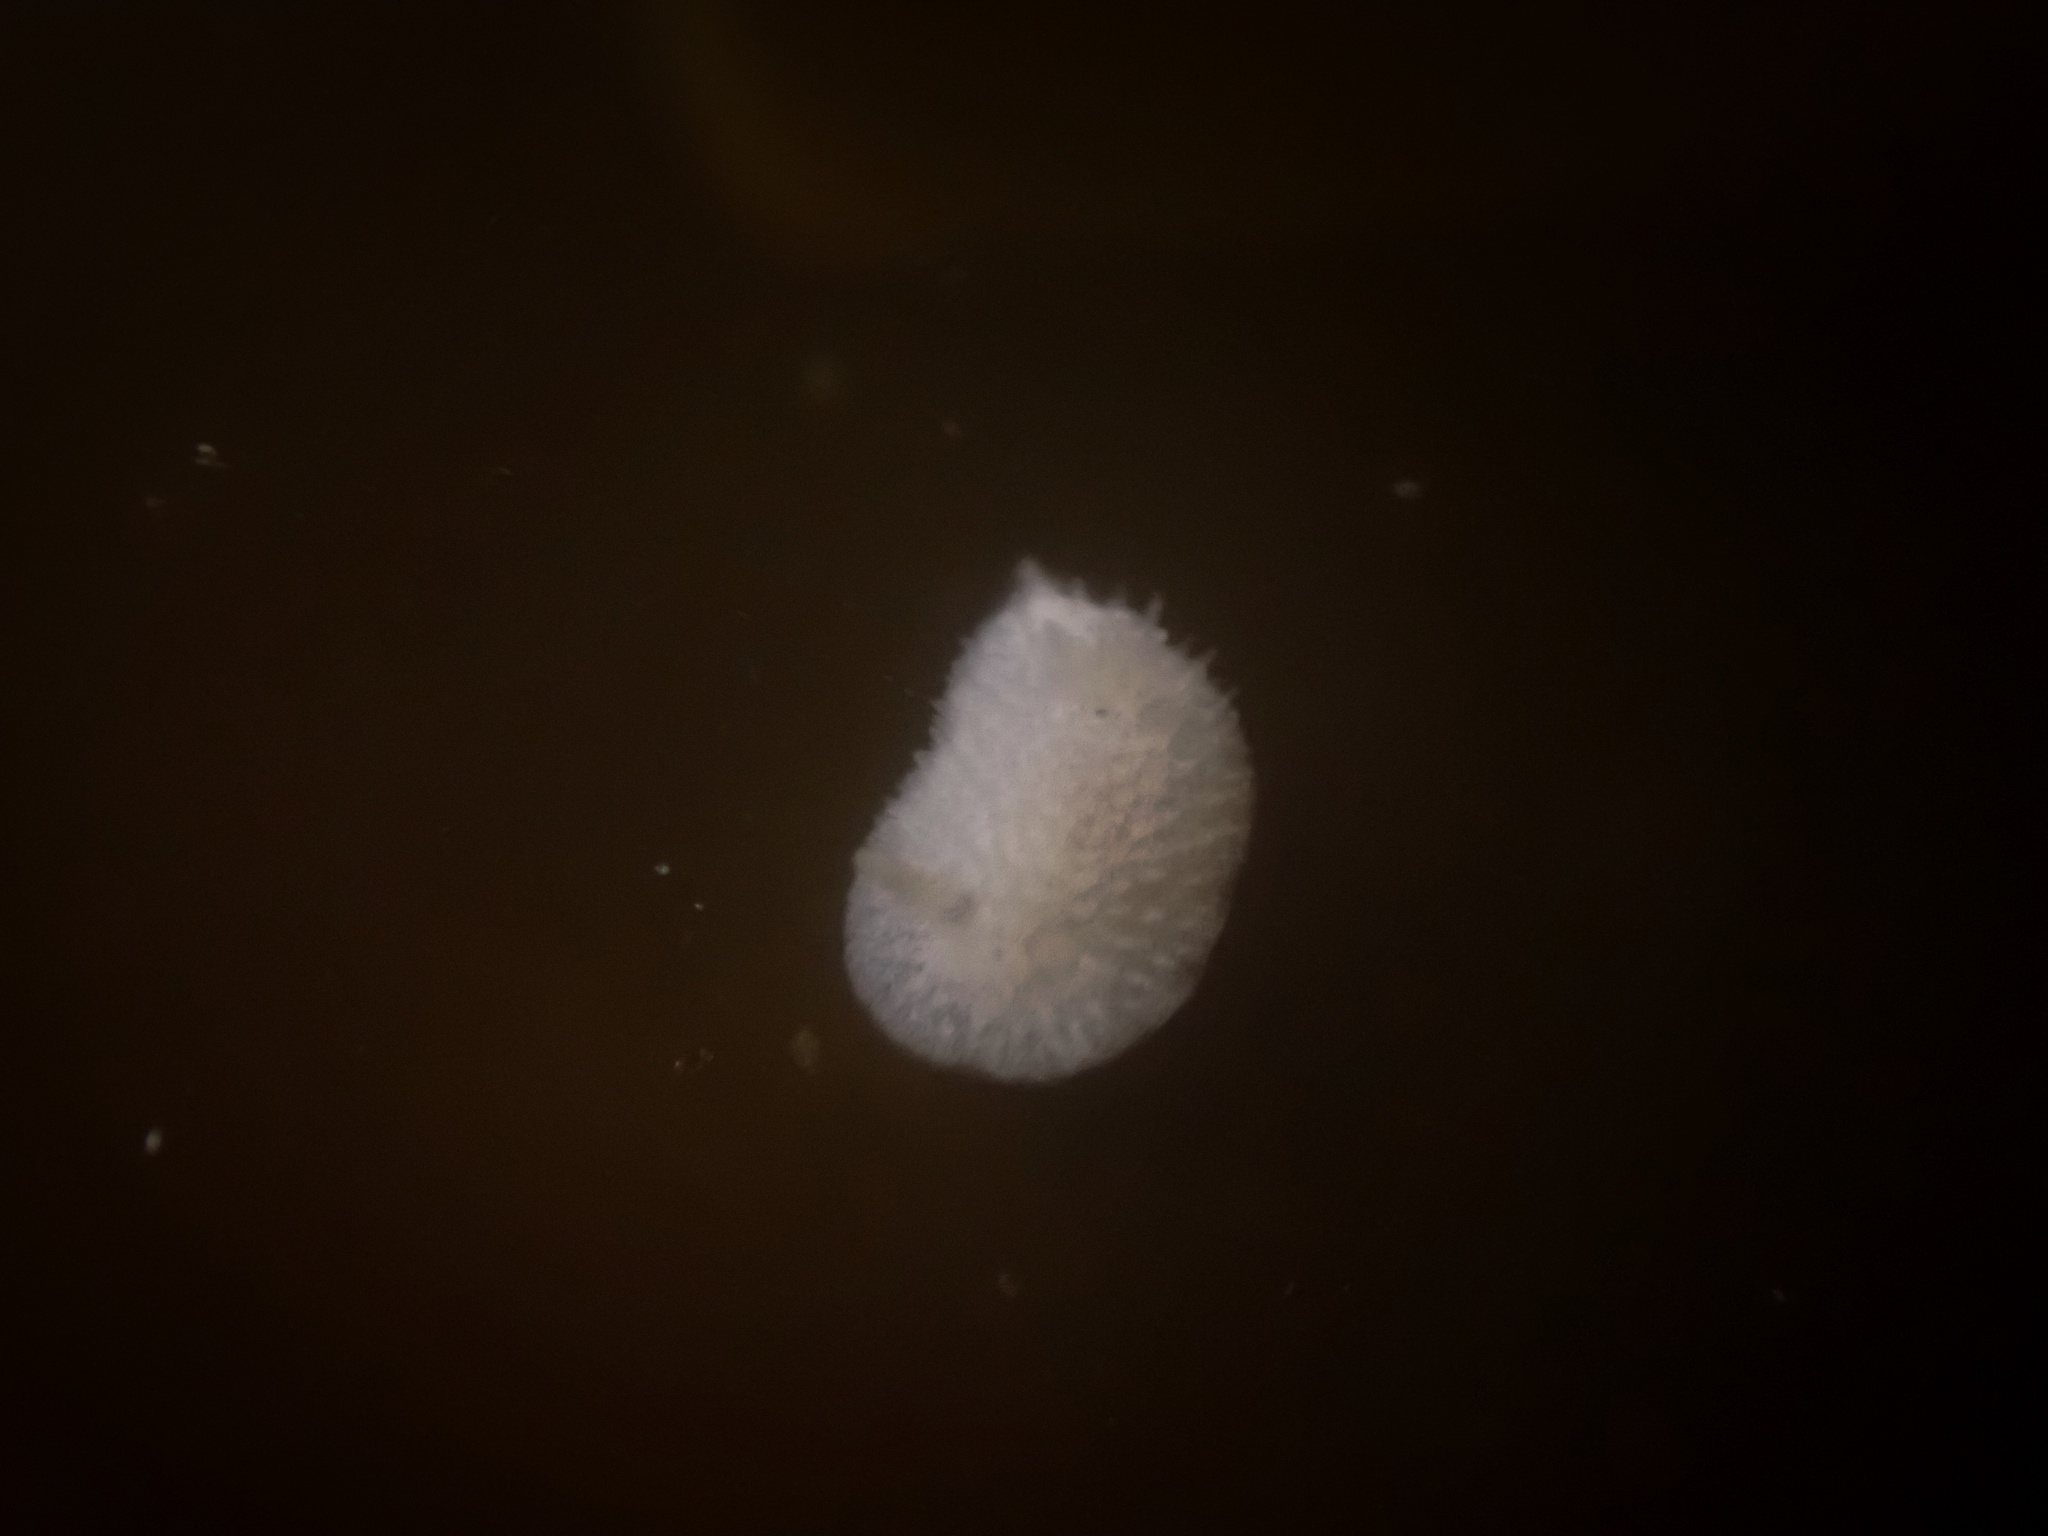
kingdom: Animalia
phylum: Mollusca
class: Gastropoda
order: Nudibranchia
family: Calycidorididae
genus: Diaphorodoris
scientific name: Diaphorodoris lirulatocauda
